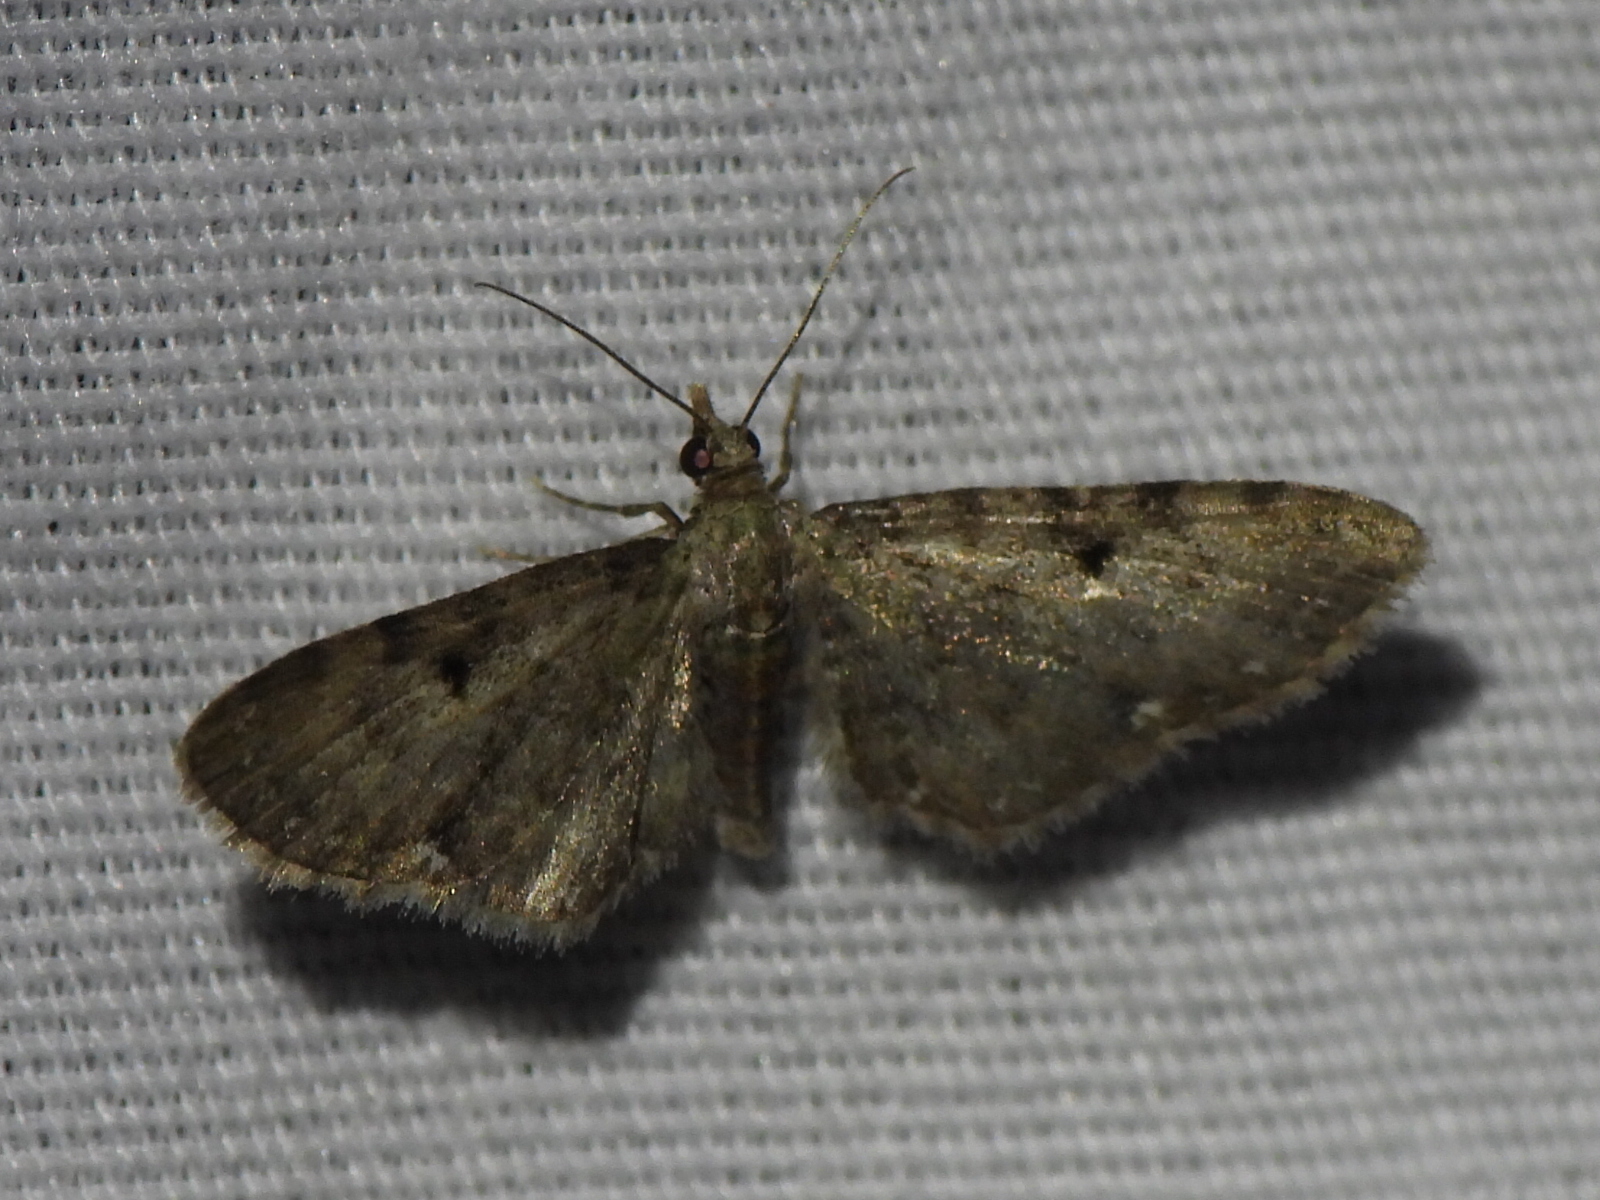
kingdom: Animalia
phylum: Arthropoda
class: Insecta
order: Lepidoptera
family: Geometridae
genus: Eupithecia
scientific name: Eupithecia miserulata
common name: Common eupithecia
